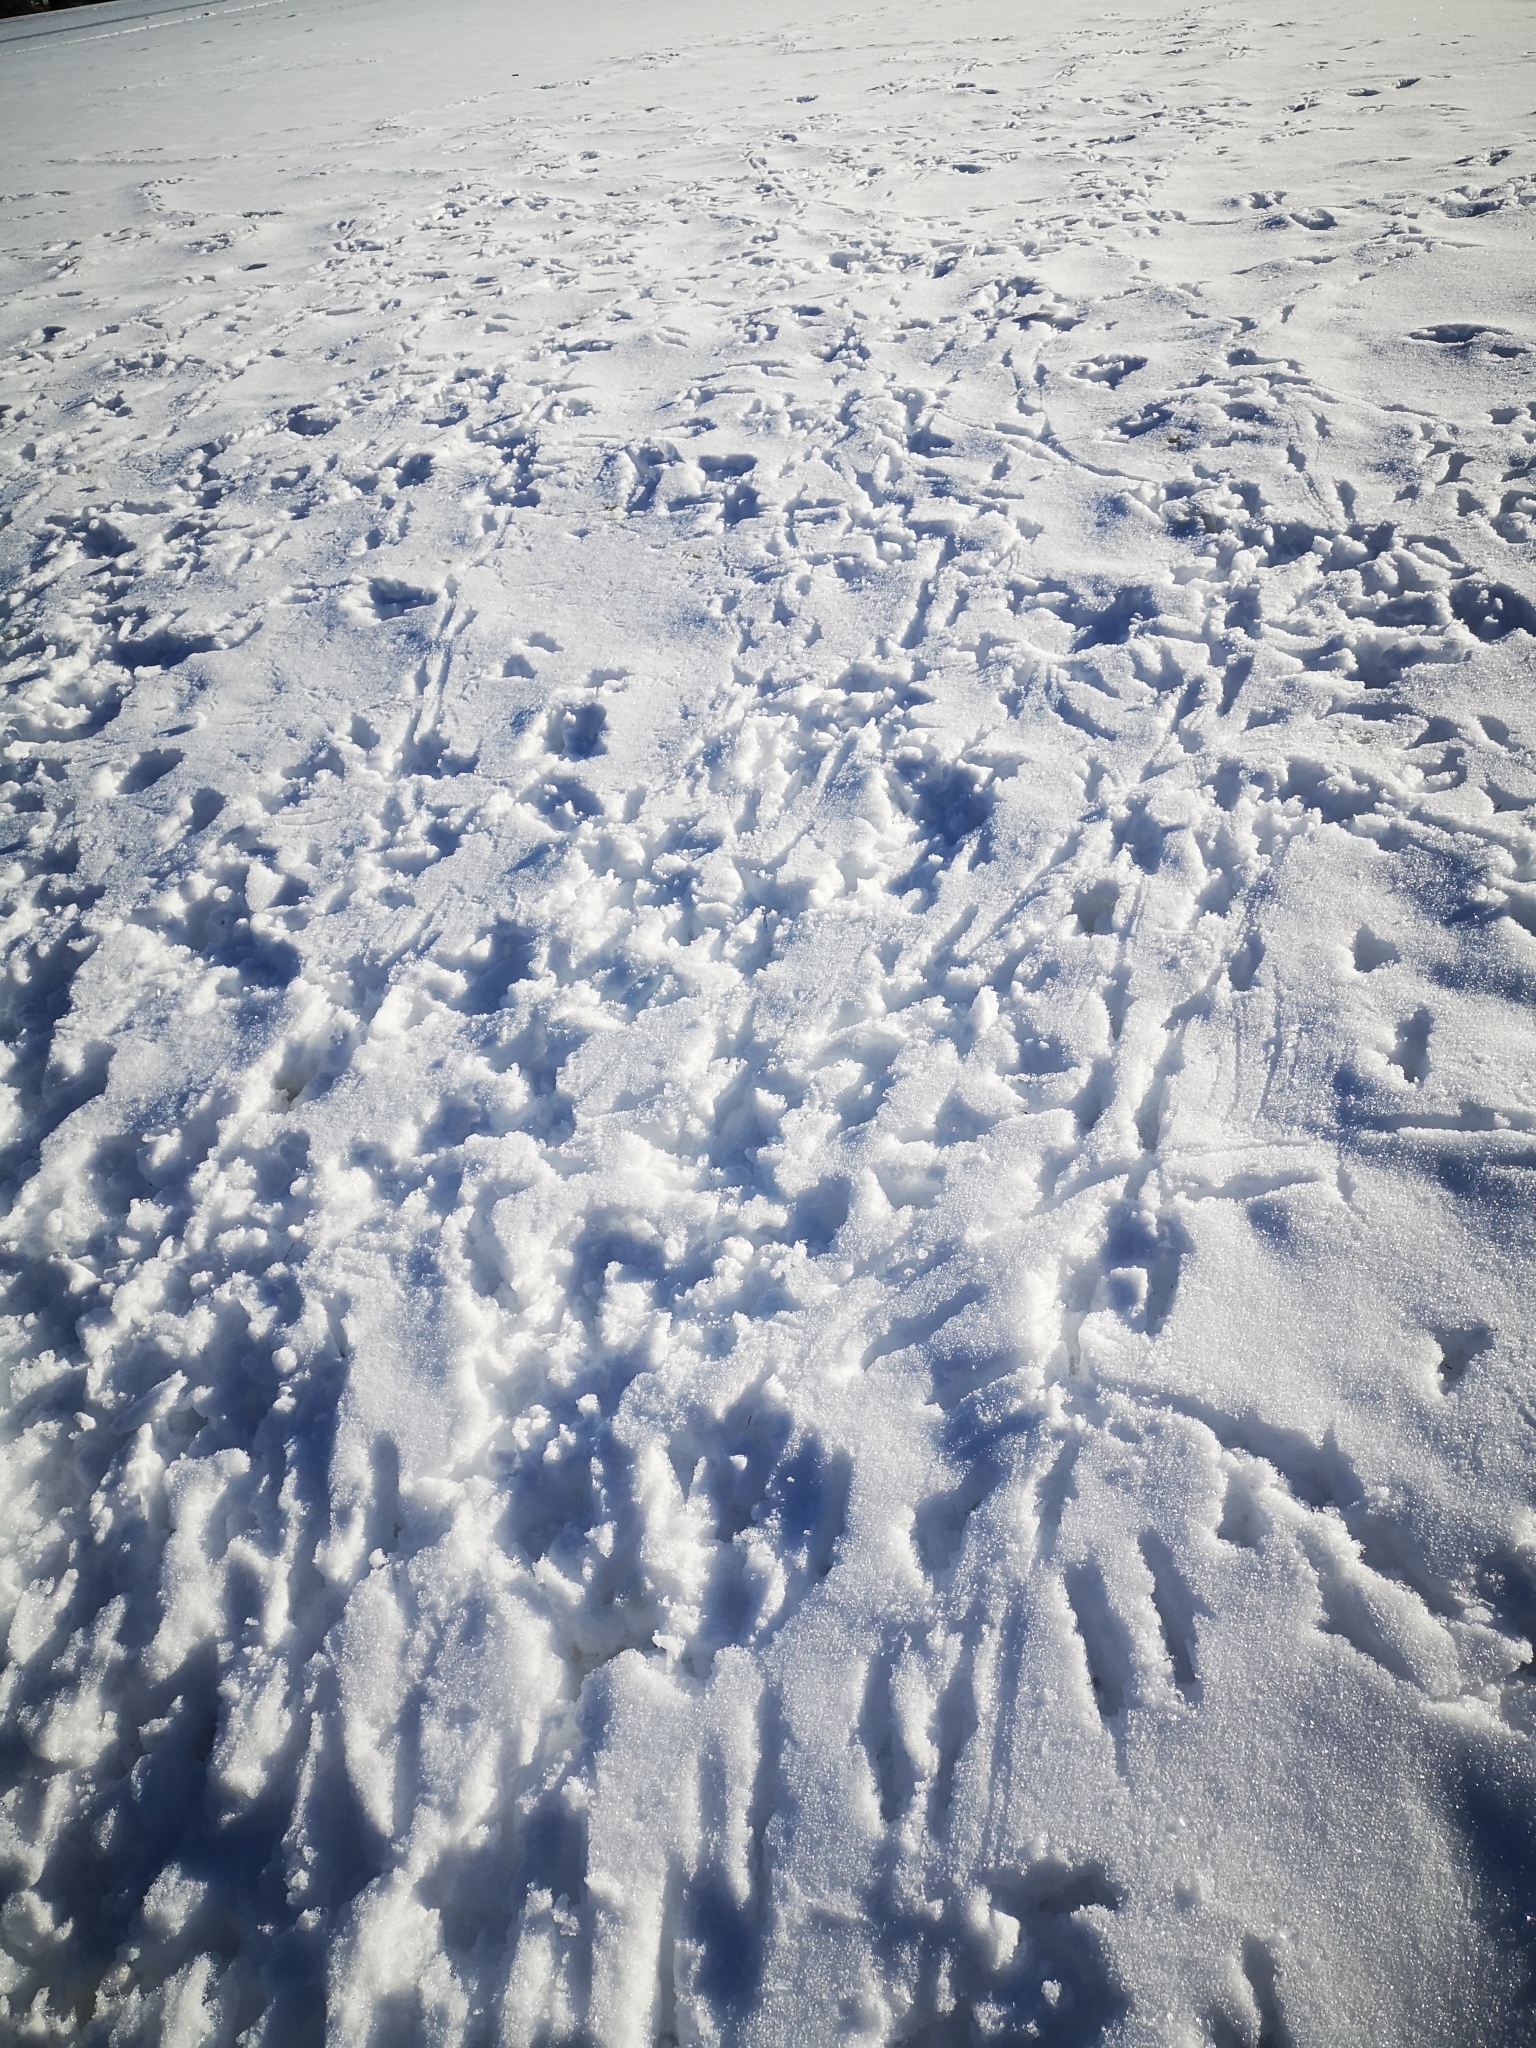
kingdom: Animalia
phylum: Chordata
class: Aves
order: Passeriformes
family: Corvidae
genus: Corvus
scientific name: Corvus corone
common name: Carrion crow
